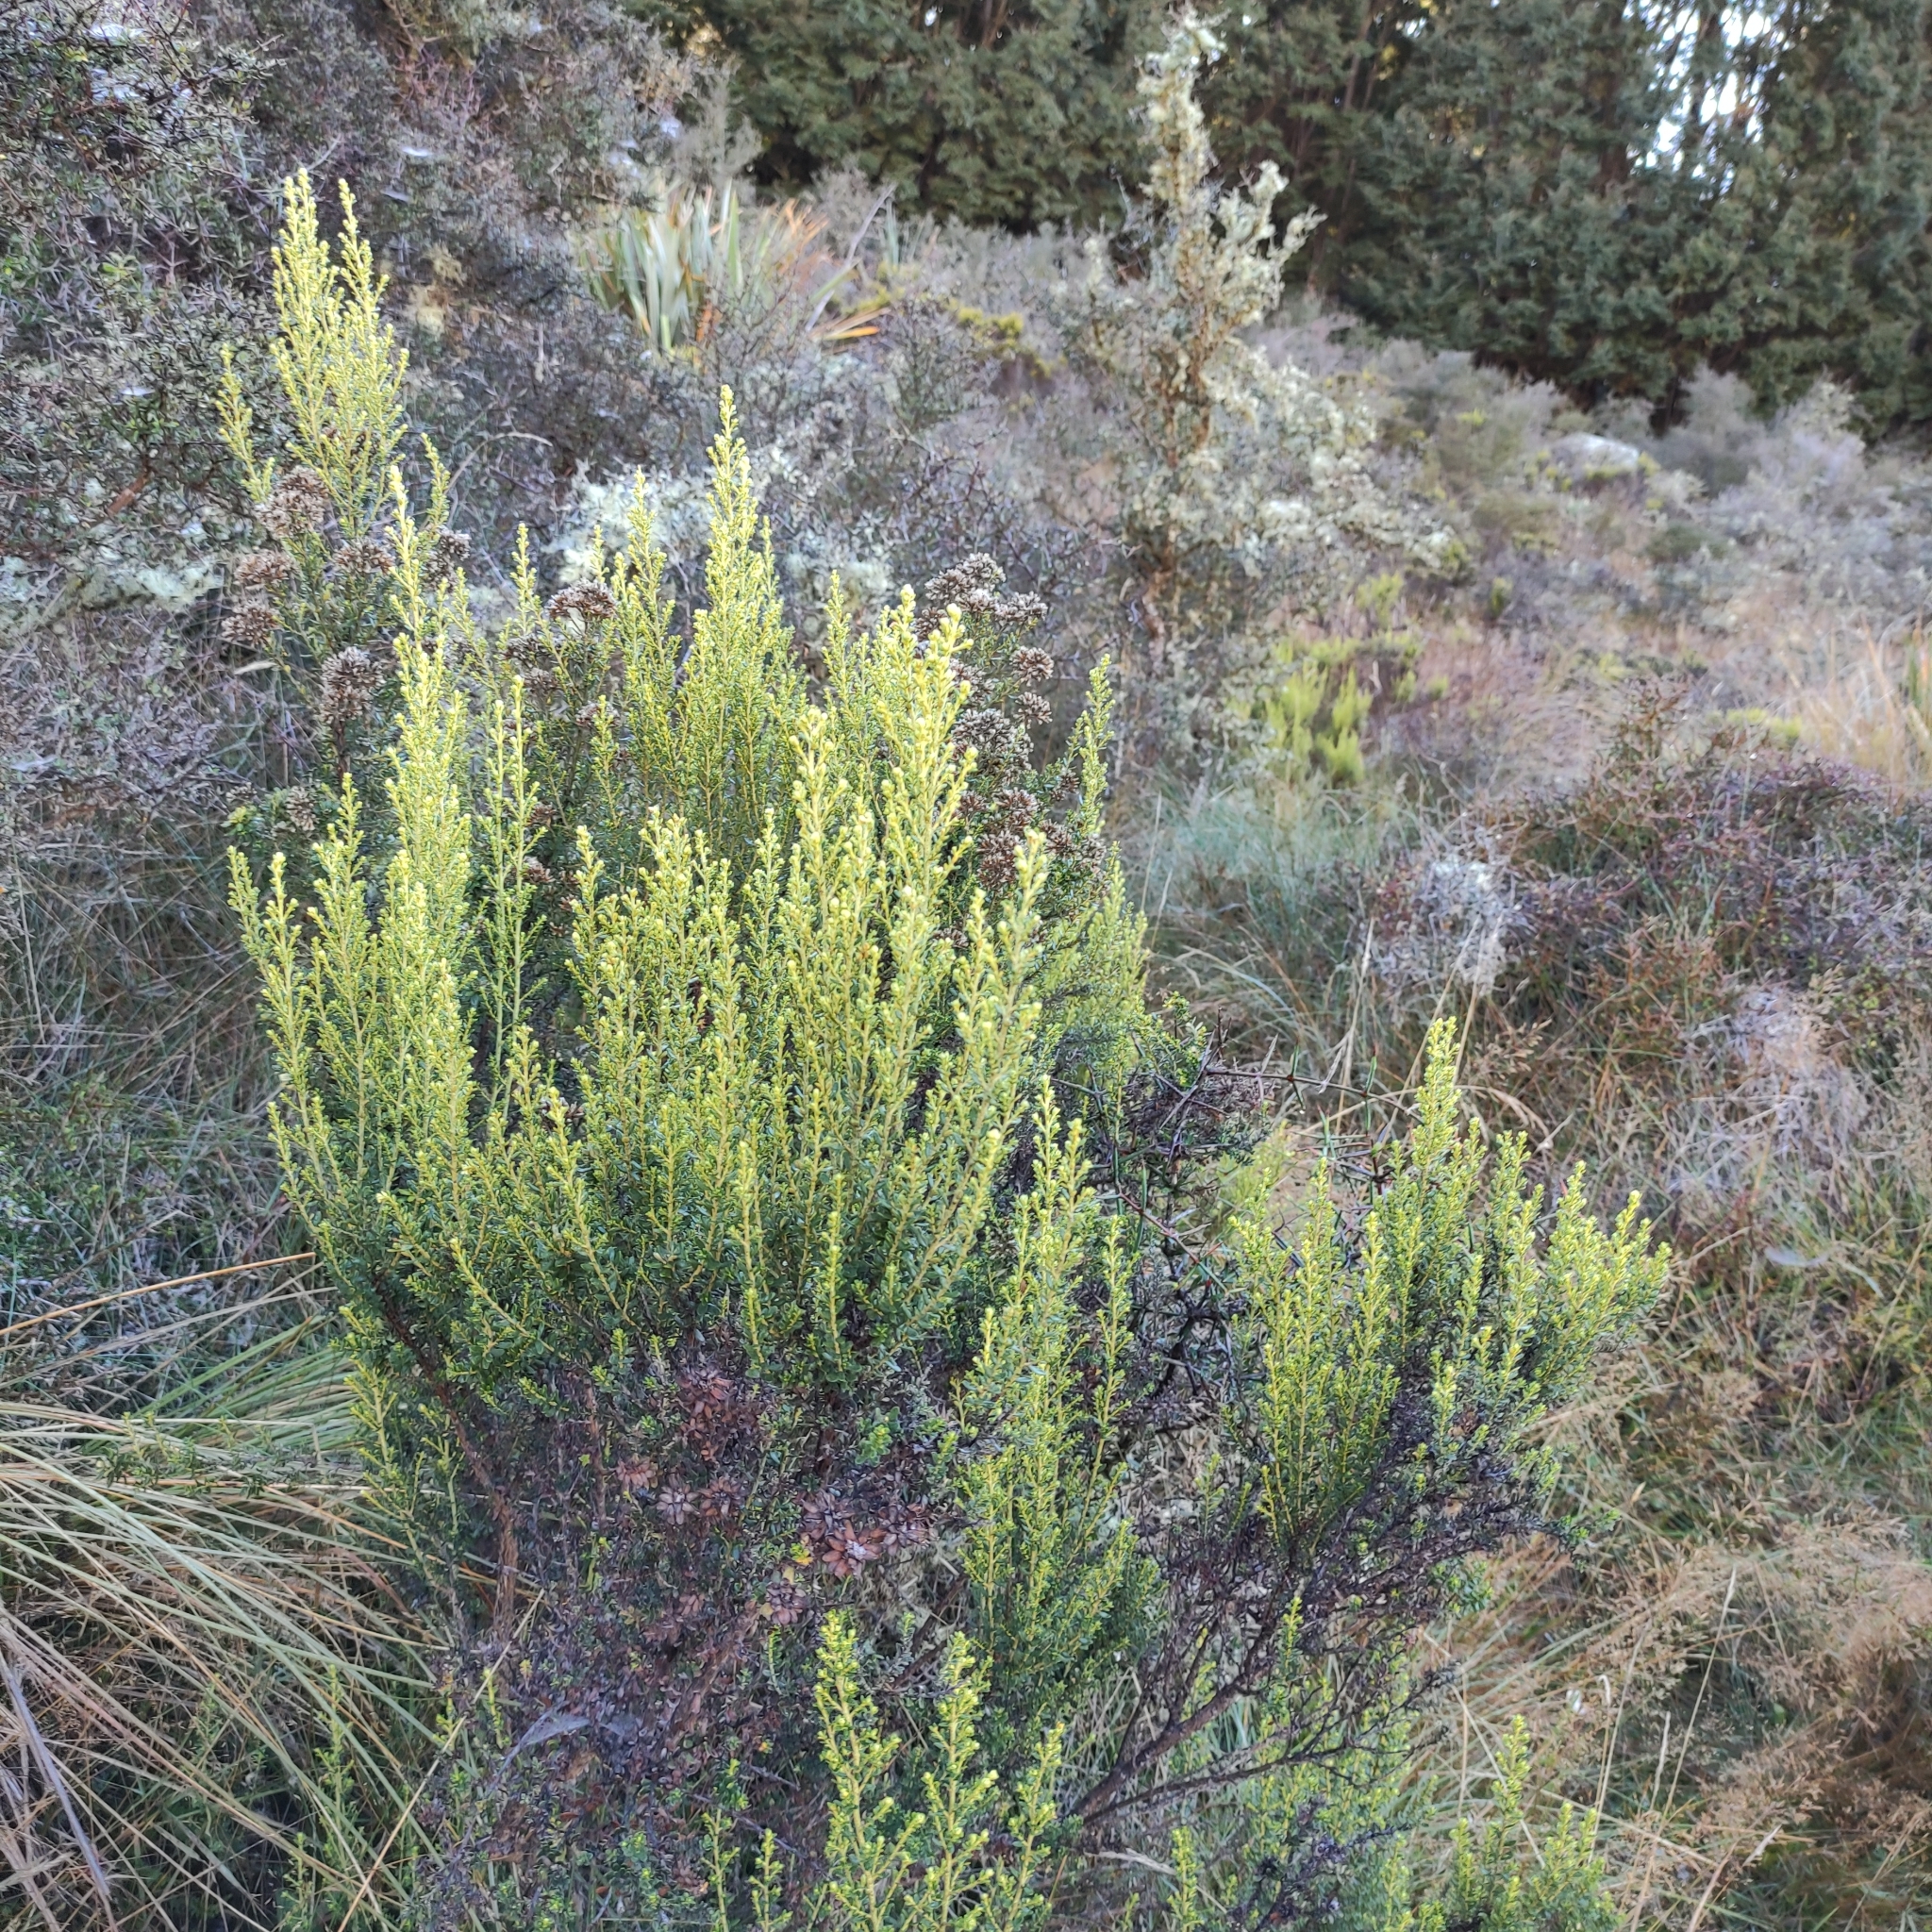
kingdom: Plantae
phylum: Tracheophyta
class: Magnoliopsida
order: Asterales
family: Asteraceae
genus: Ozothamnus
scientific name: Ozothamnus leptophyllus
